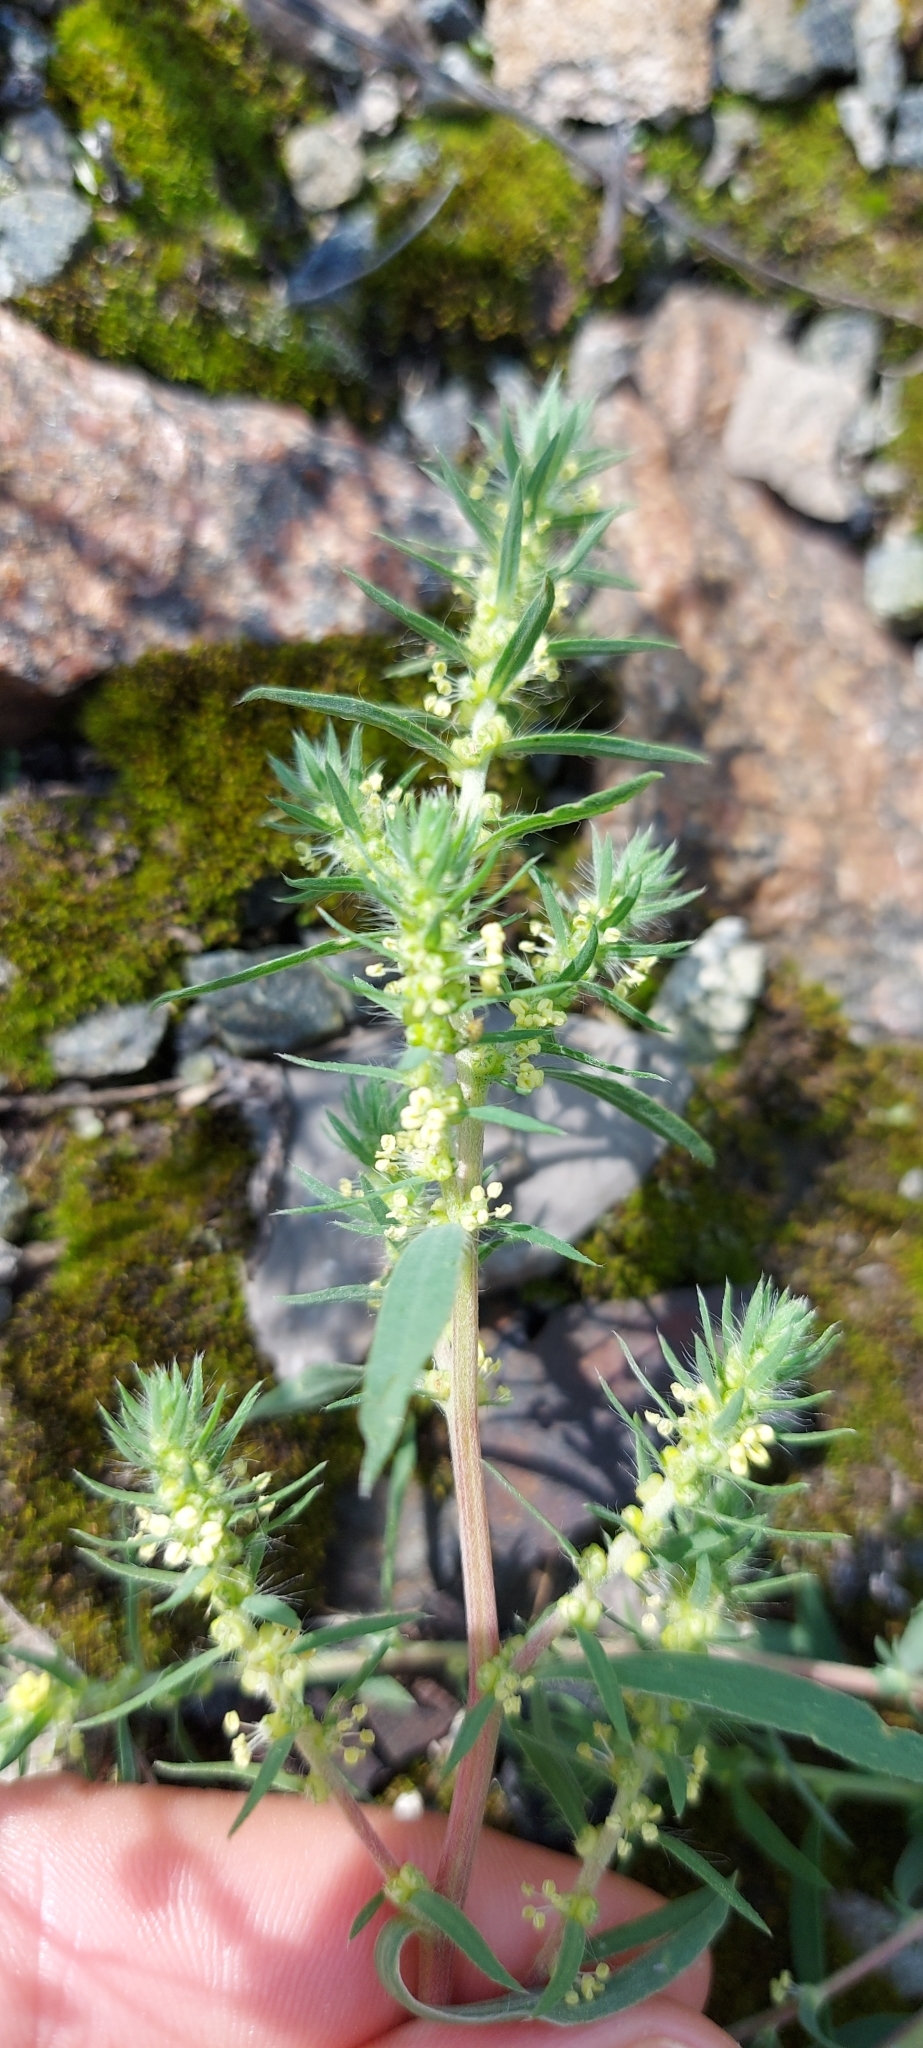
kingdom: Plantae
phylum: Tracheophyta
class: Magnoliopsida
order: Caryophyllales
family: Amaranthaceae
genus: Bassia
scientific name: Bassia scoparia
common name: Belvedere
